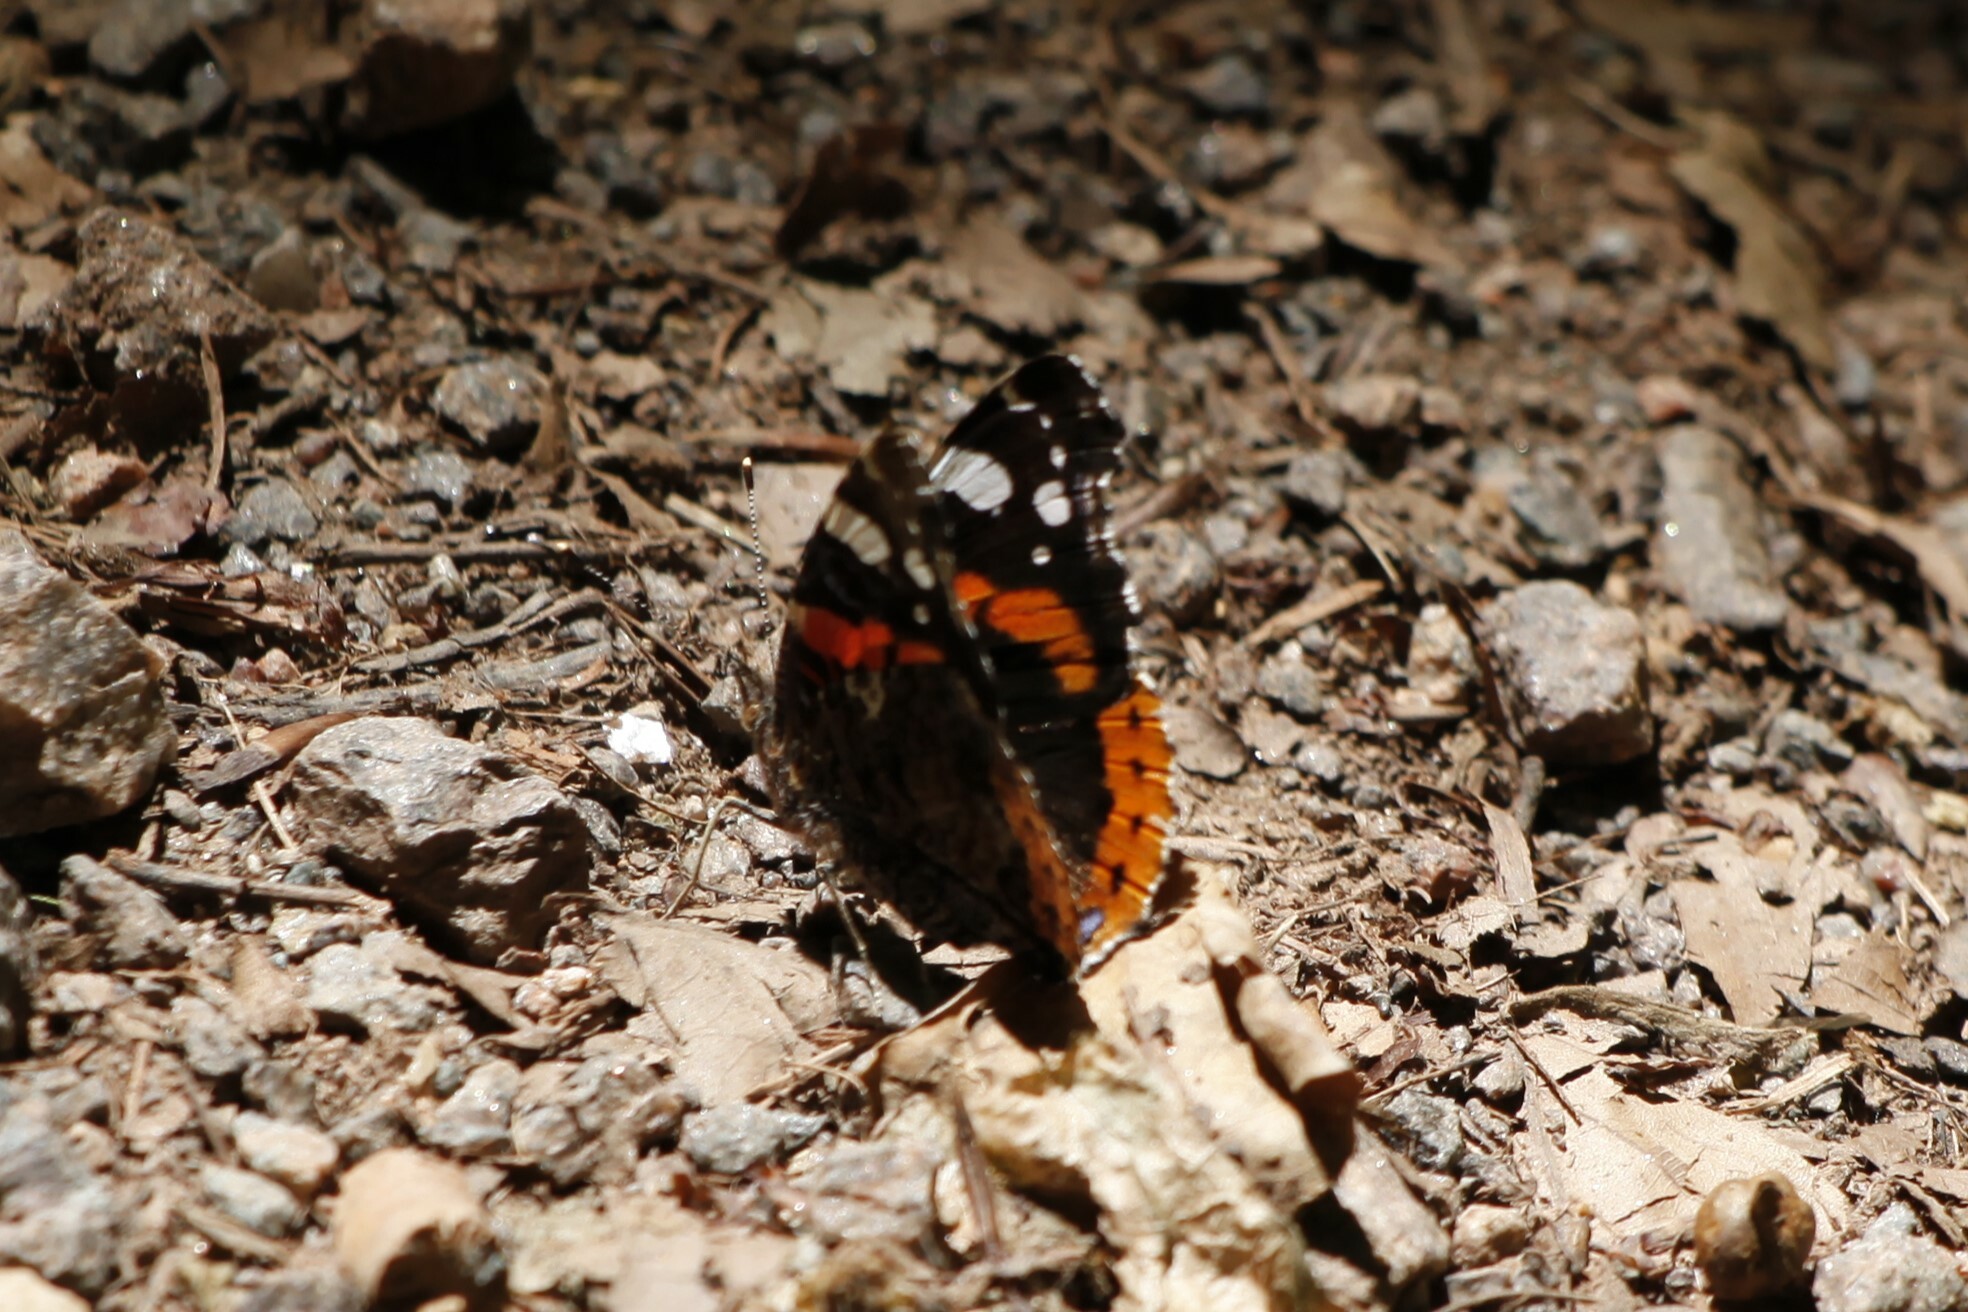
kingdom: Animalia
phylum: Arthropoda
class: Insecta
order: Lepidoptera
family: Nymphalidae
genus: Vanessa
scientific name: Vanessa atalanta
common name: Red admiral
